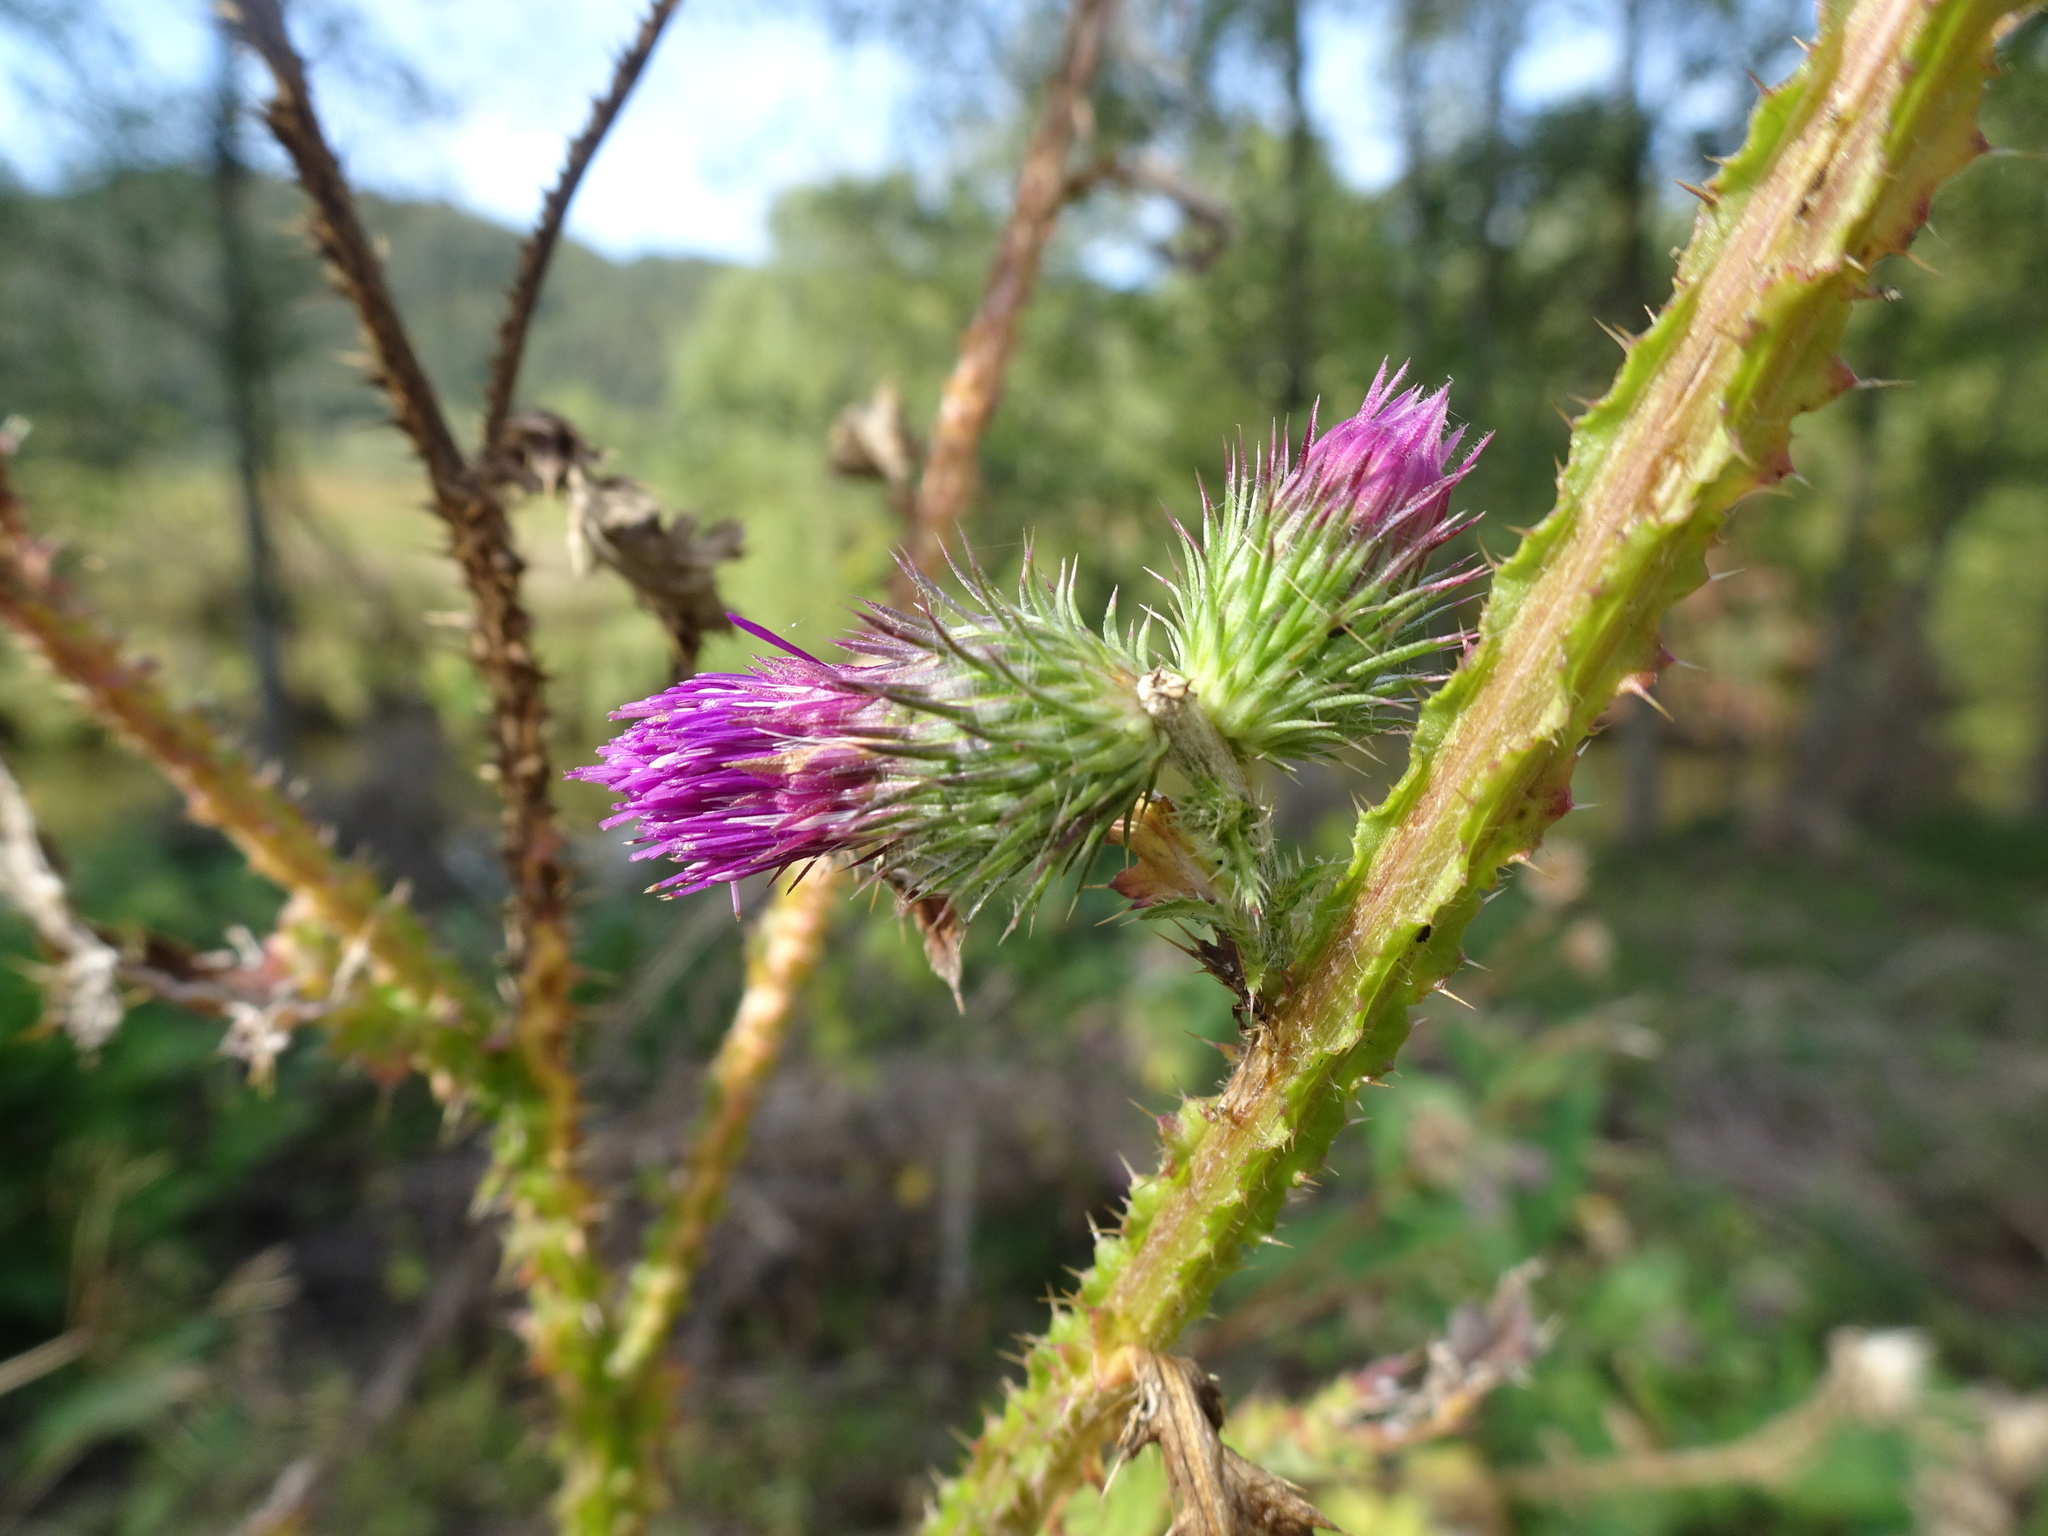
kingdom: Plantae
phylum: Tracheophyta
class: Magnoliopsida
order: Asterales
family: Asteraceae
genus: Carduus
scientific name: Carduus crispus
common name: Welted thistle
